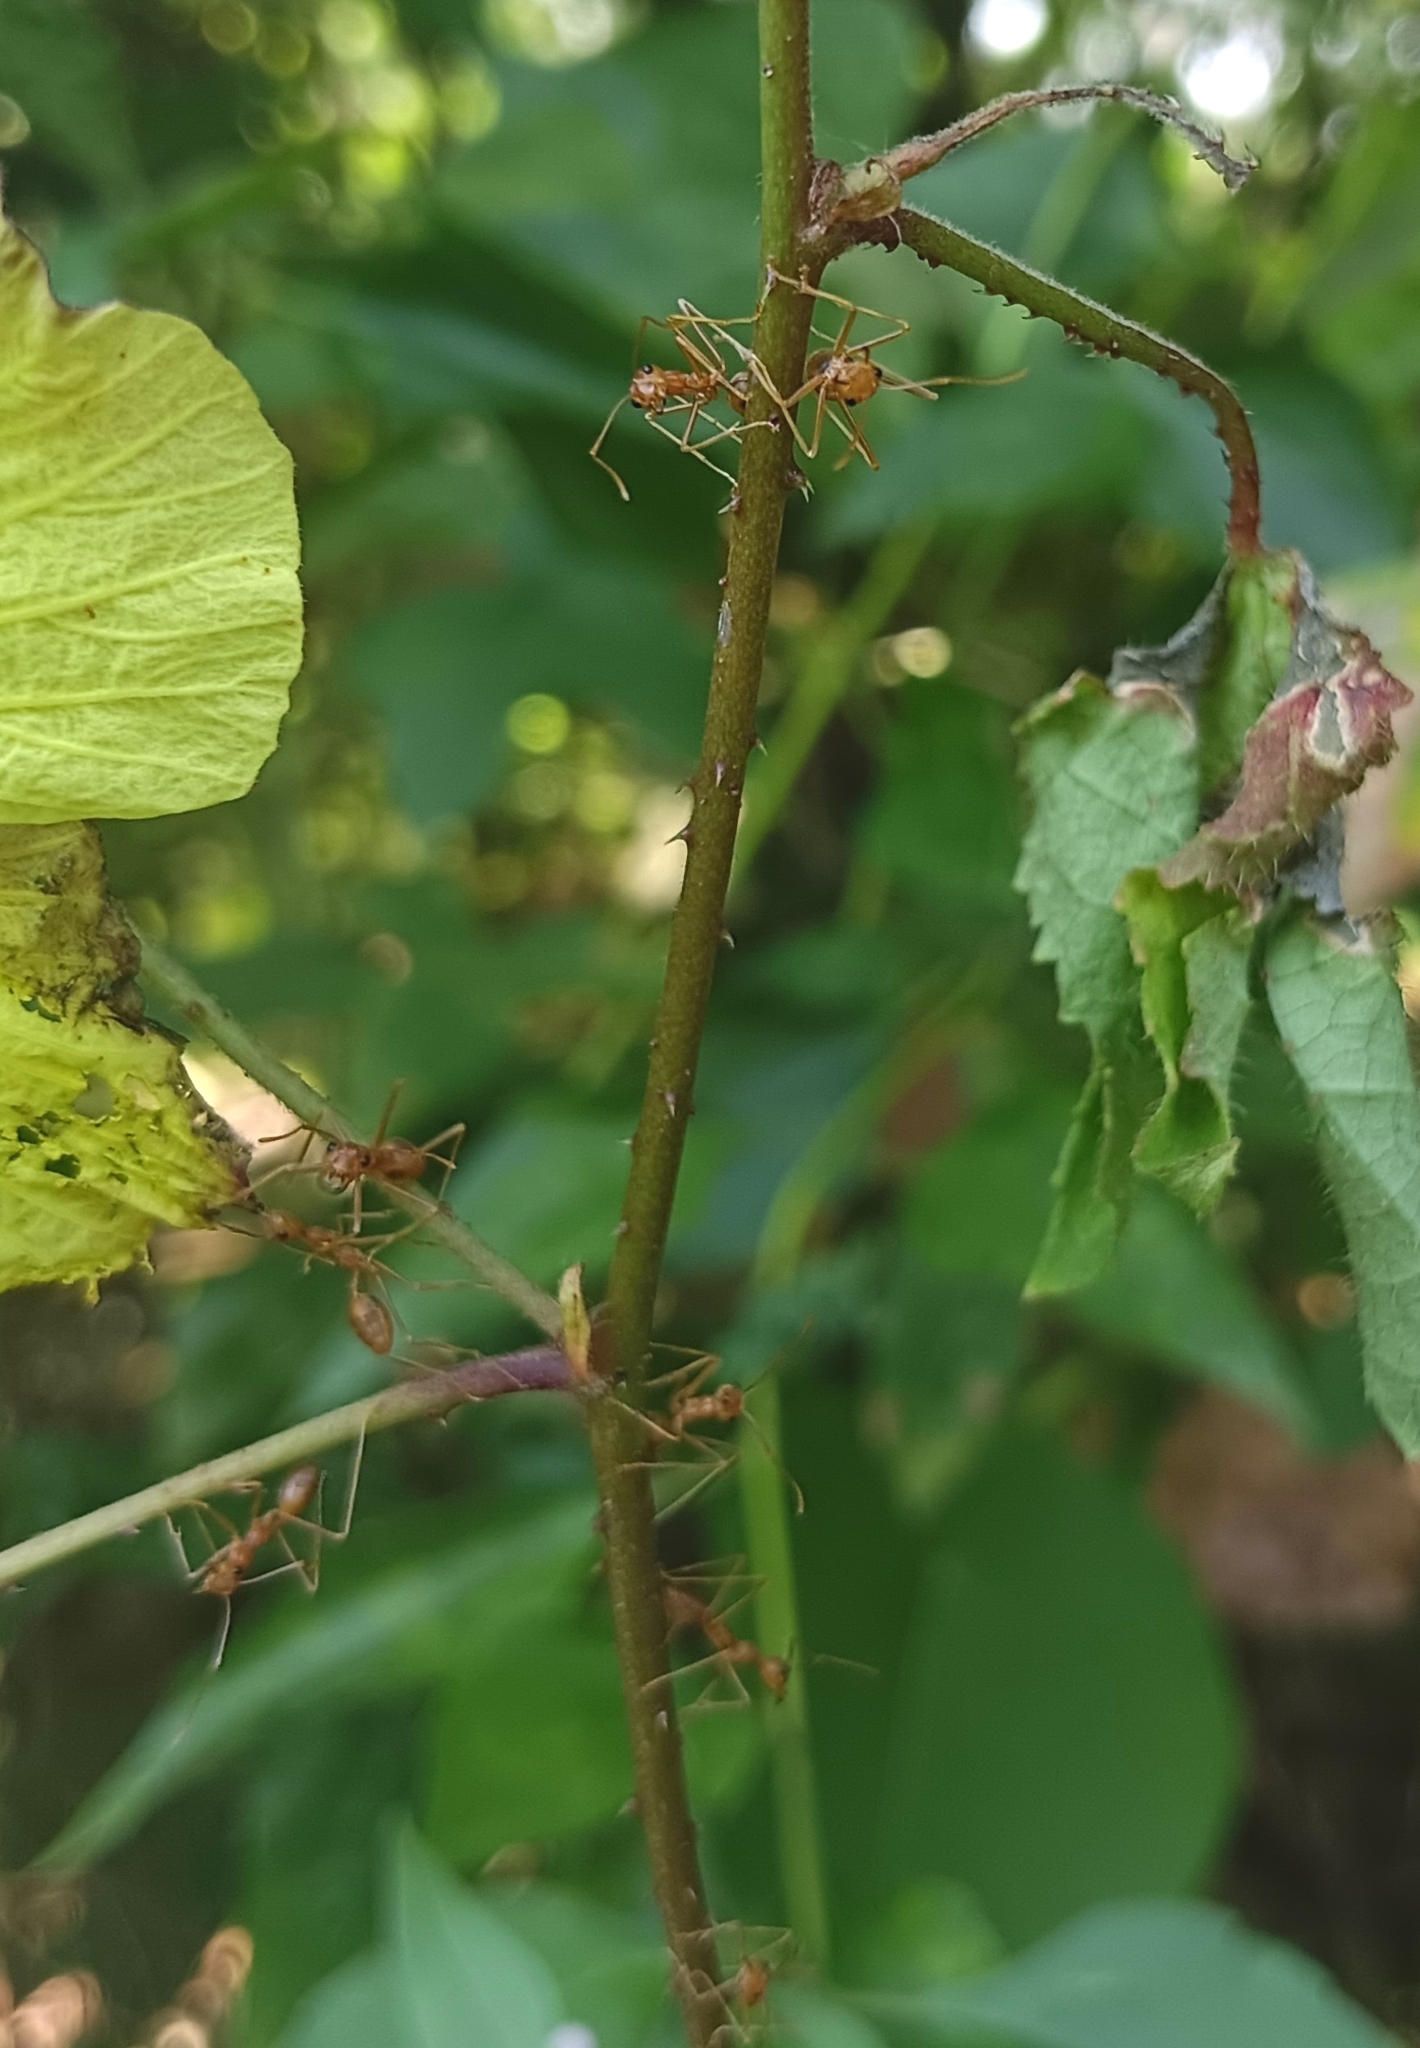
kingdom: Animalia
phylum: Arthropoda
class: Insecta
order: Hymenoptera
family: Formicidae
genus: Oecophylla
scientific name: Oecophylla smaragdina
